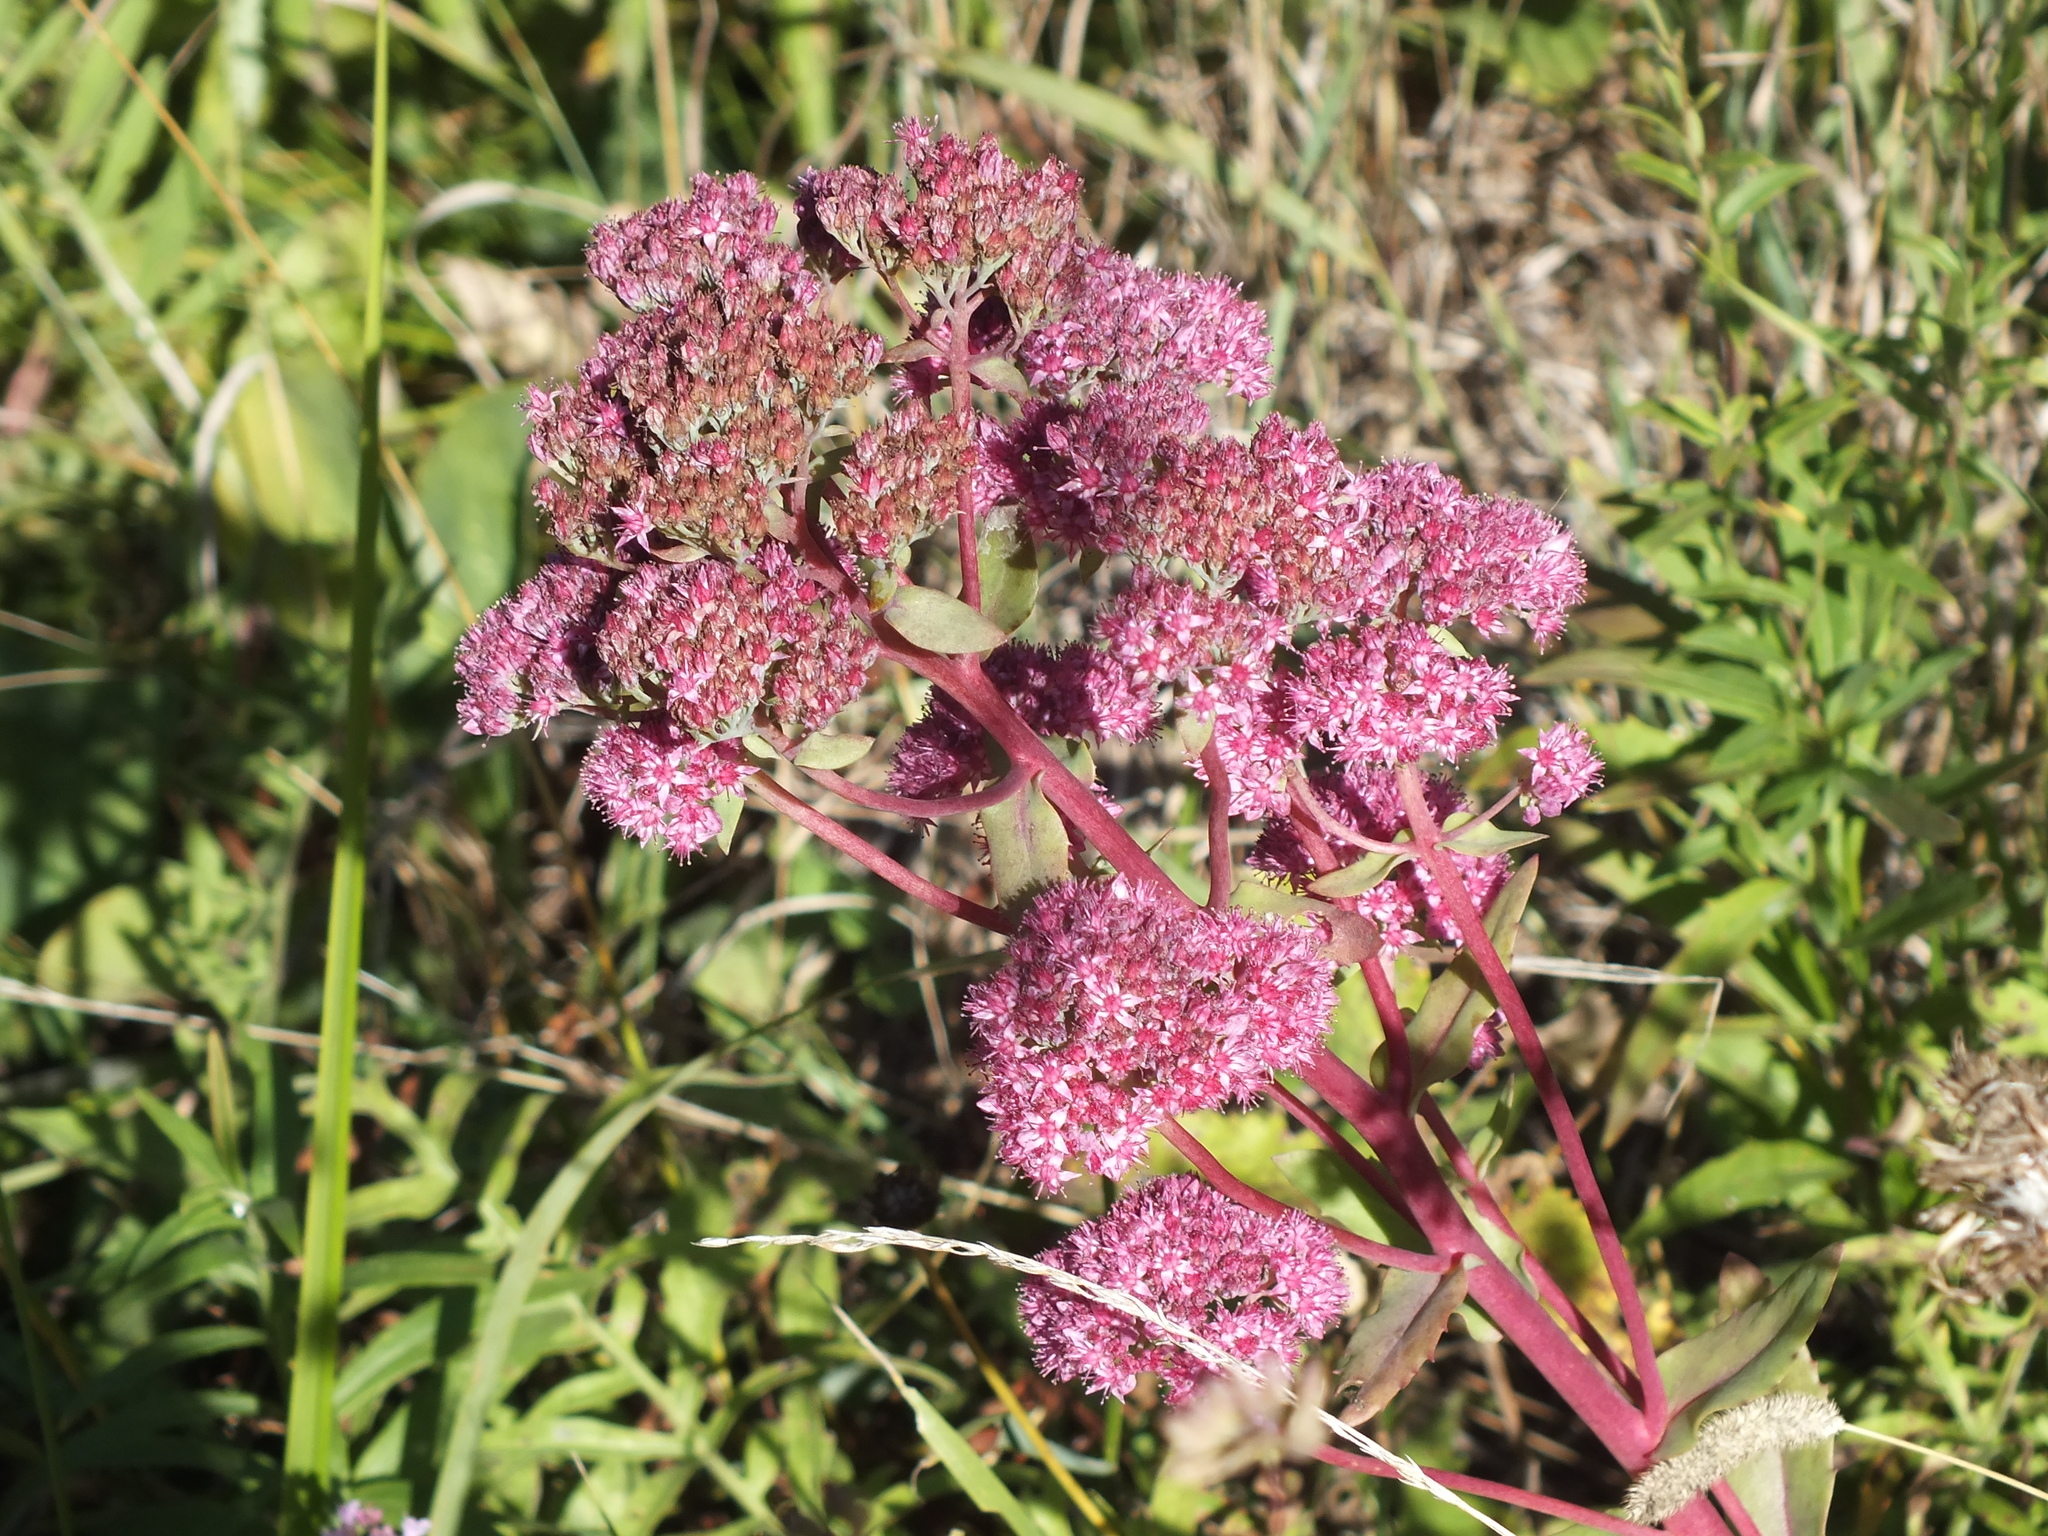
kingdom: Plantae
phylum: Tracheophyta
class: Magnoliopsida
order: Saxifragales
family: Crassulaceae
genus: Hylotelephium
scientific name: Hylotelephium telephium
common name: Live-forever
